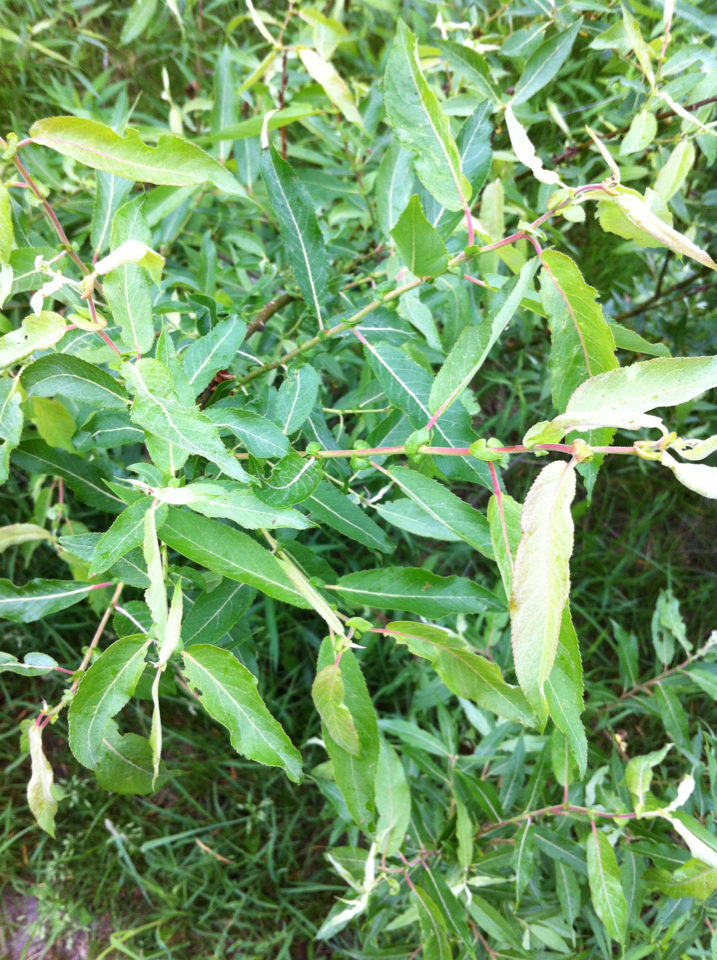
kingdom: Plantae
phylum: Tracheophyta
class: Magnoliopsida
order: Malpighiales
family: Salicaceae
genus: Salix
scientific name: Salix eriocephala
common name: Heart-leaved willow
